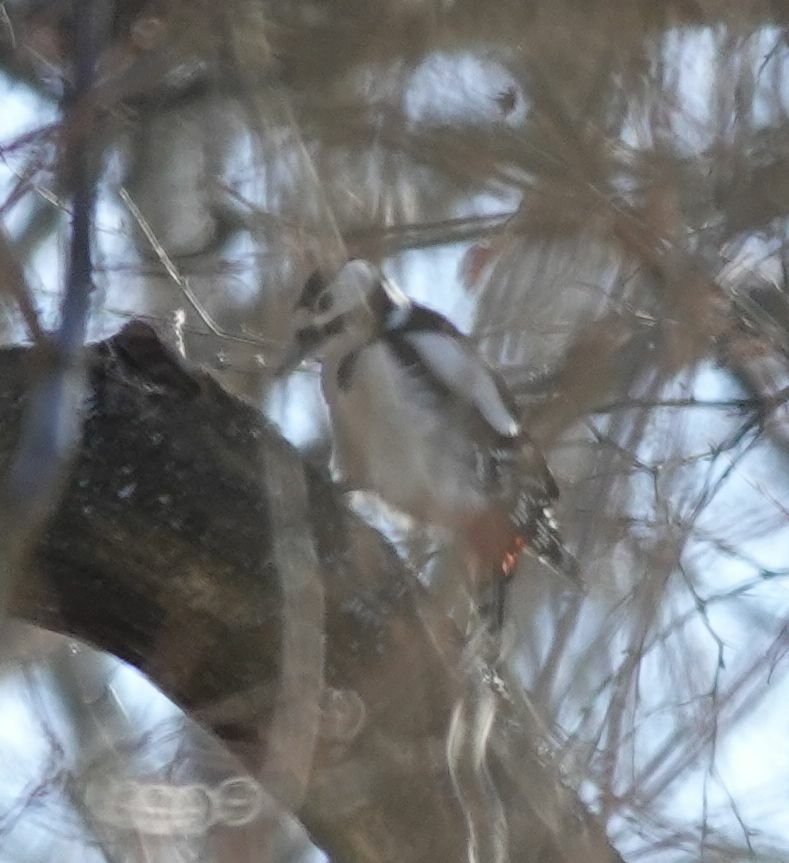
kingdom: Animalia
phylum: Chordata
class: Aves
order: Piciformes
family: Picidae
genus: Dendrocopos
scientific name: Dendrocopos major
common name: Great spotted woodpecker
